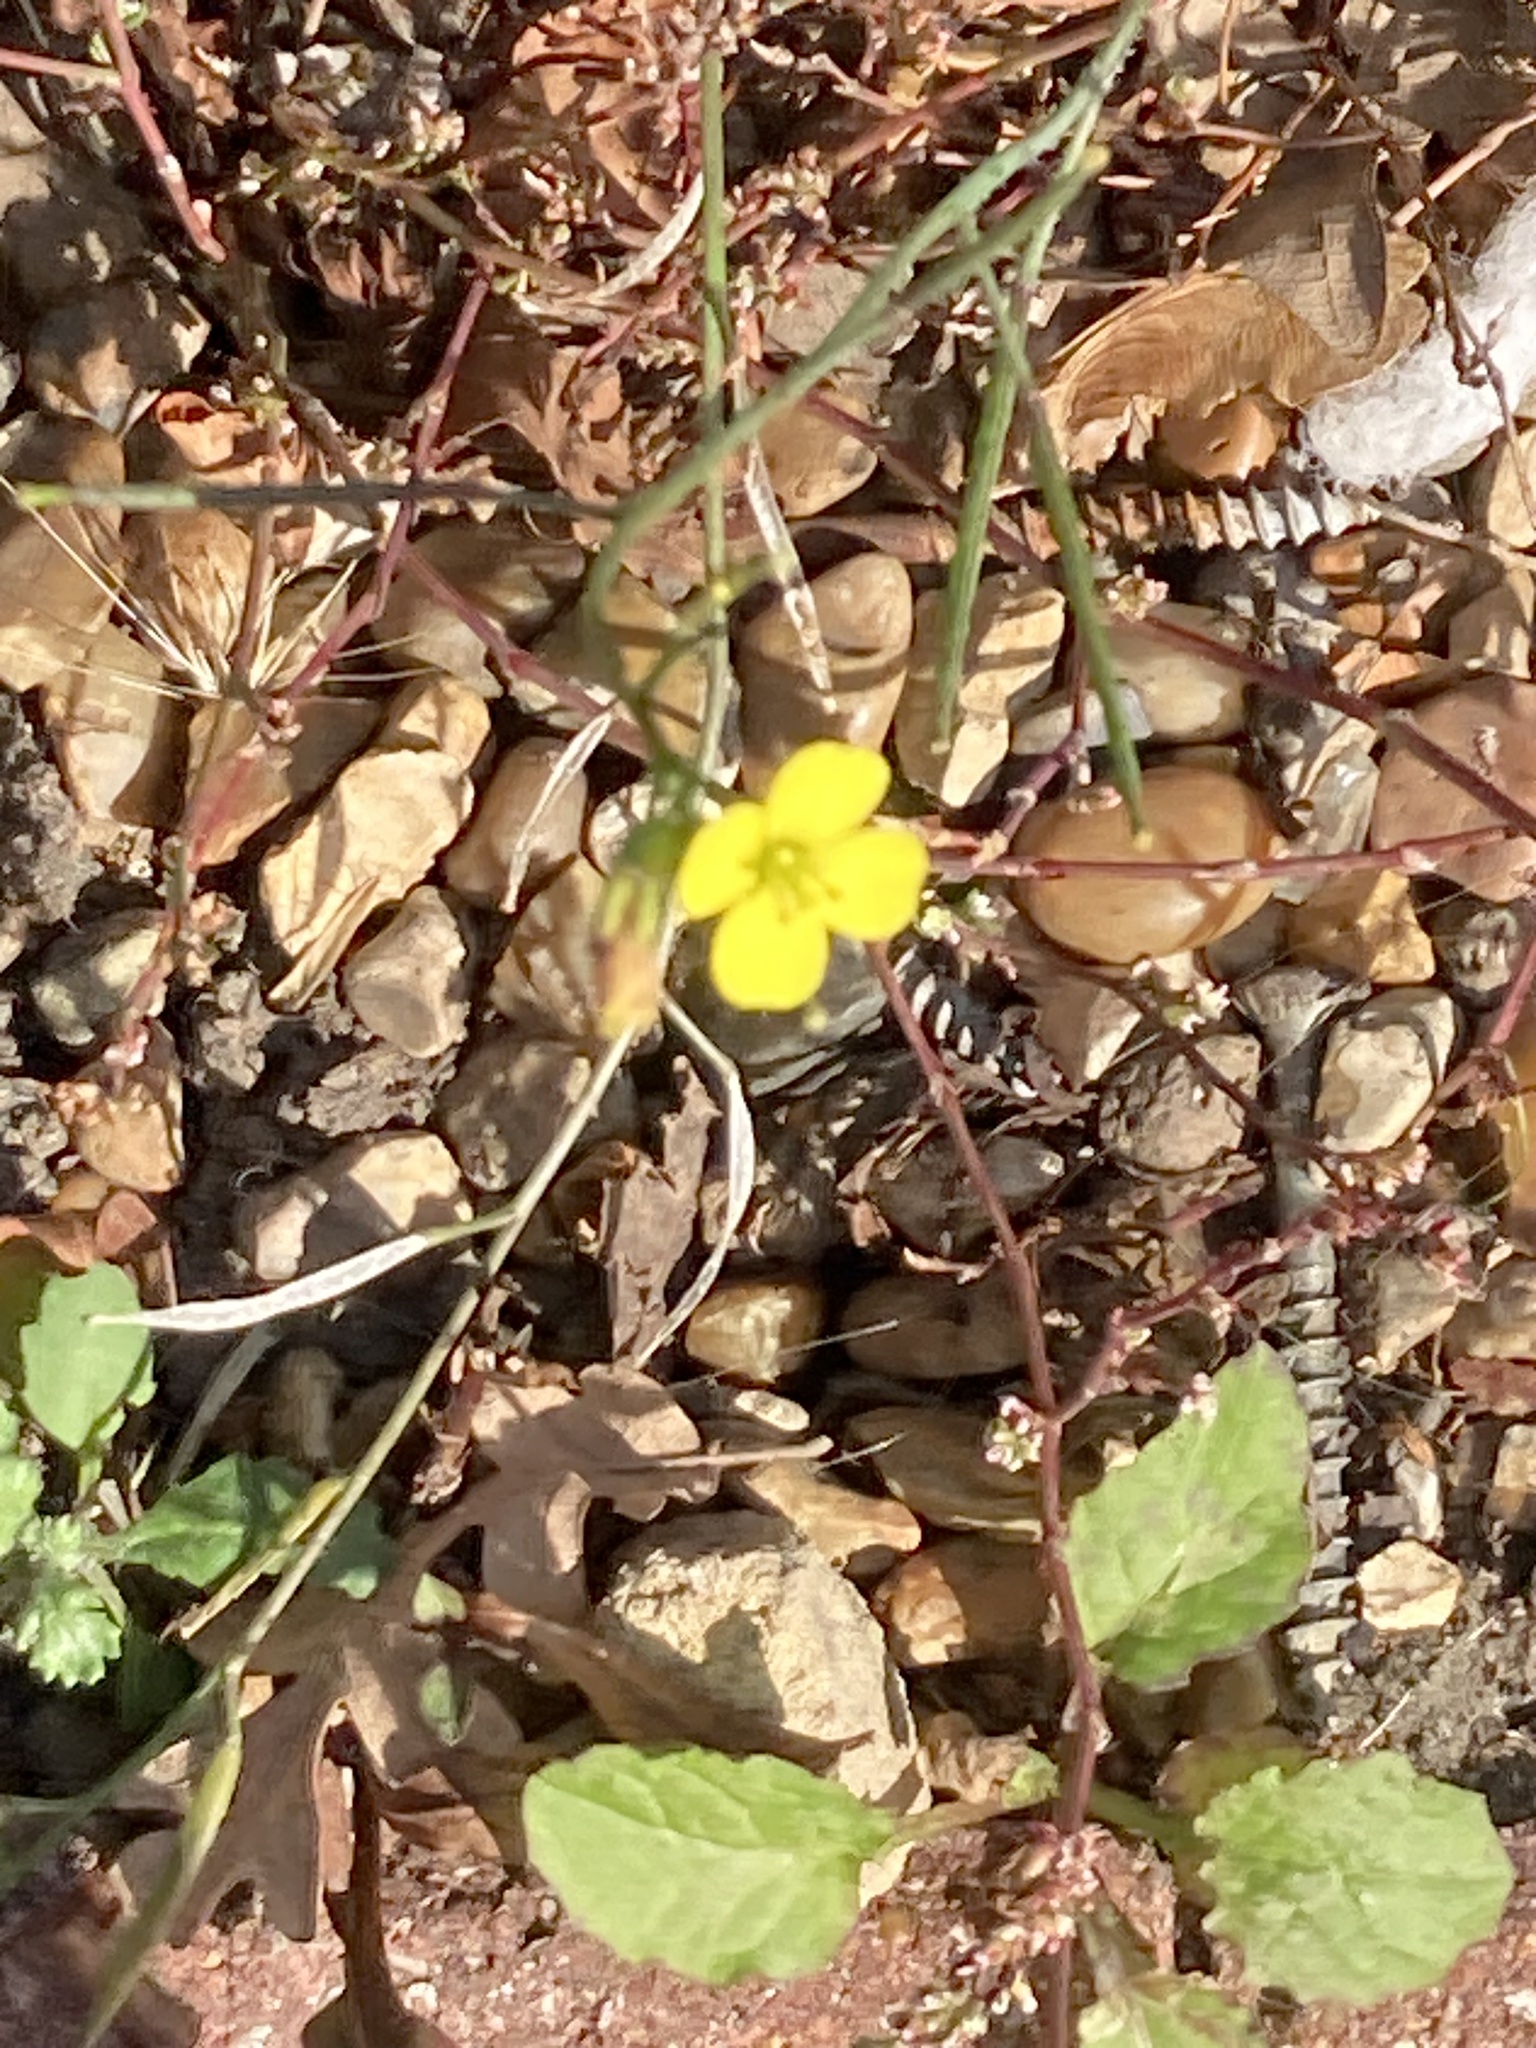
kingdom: Plantae
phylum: Tracheophyta
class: Magnoliopsida
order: Brassicales
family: Brassicaceae
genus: Diplotaxis
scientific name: Diplotaxis muralis
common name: Annual wall-rocket
